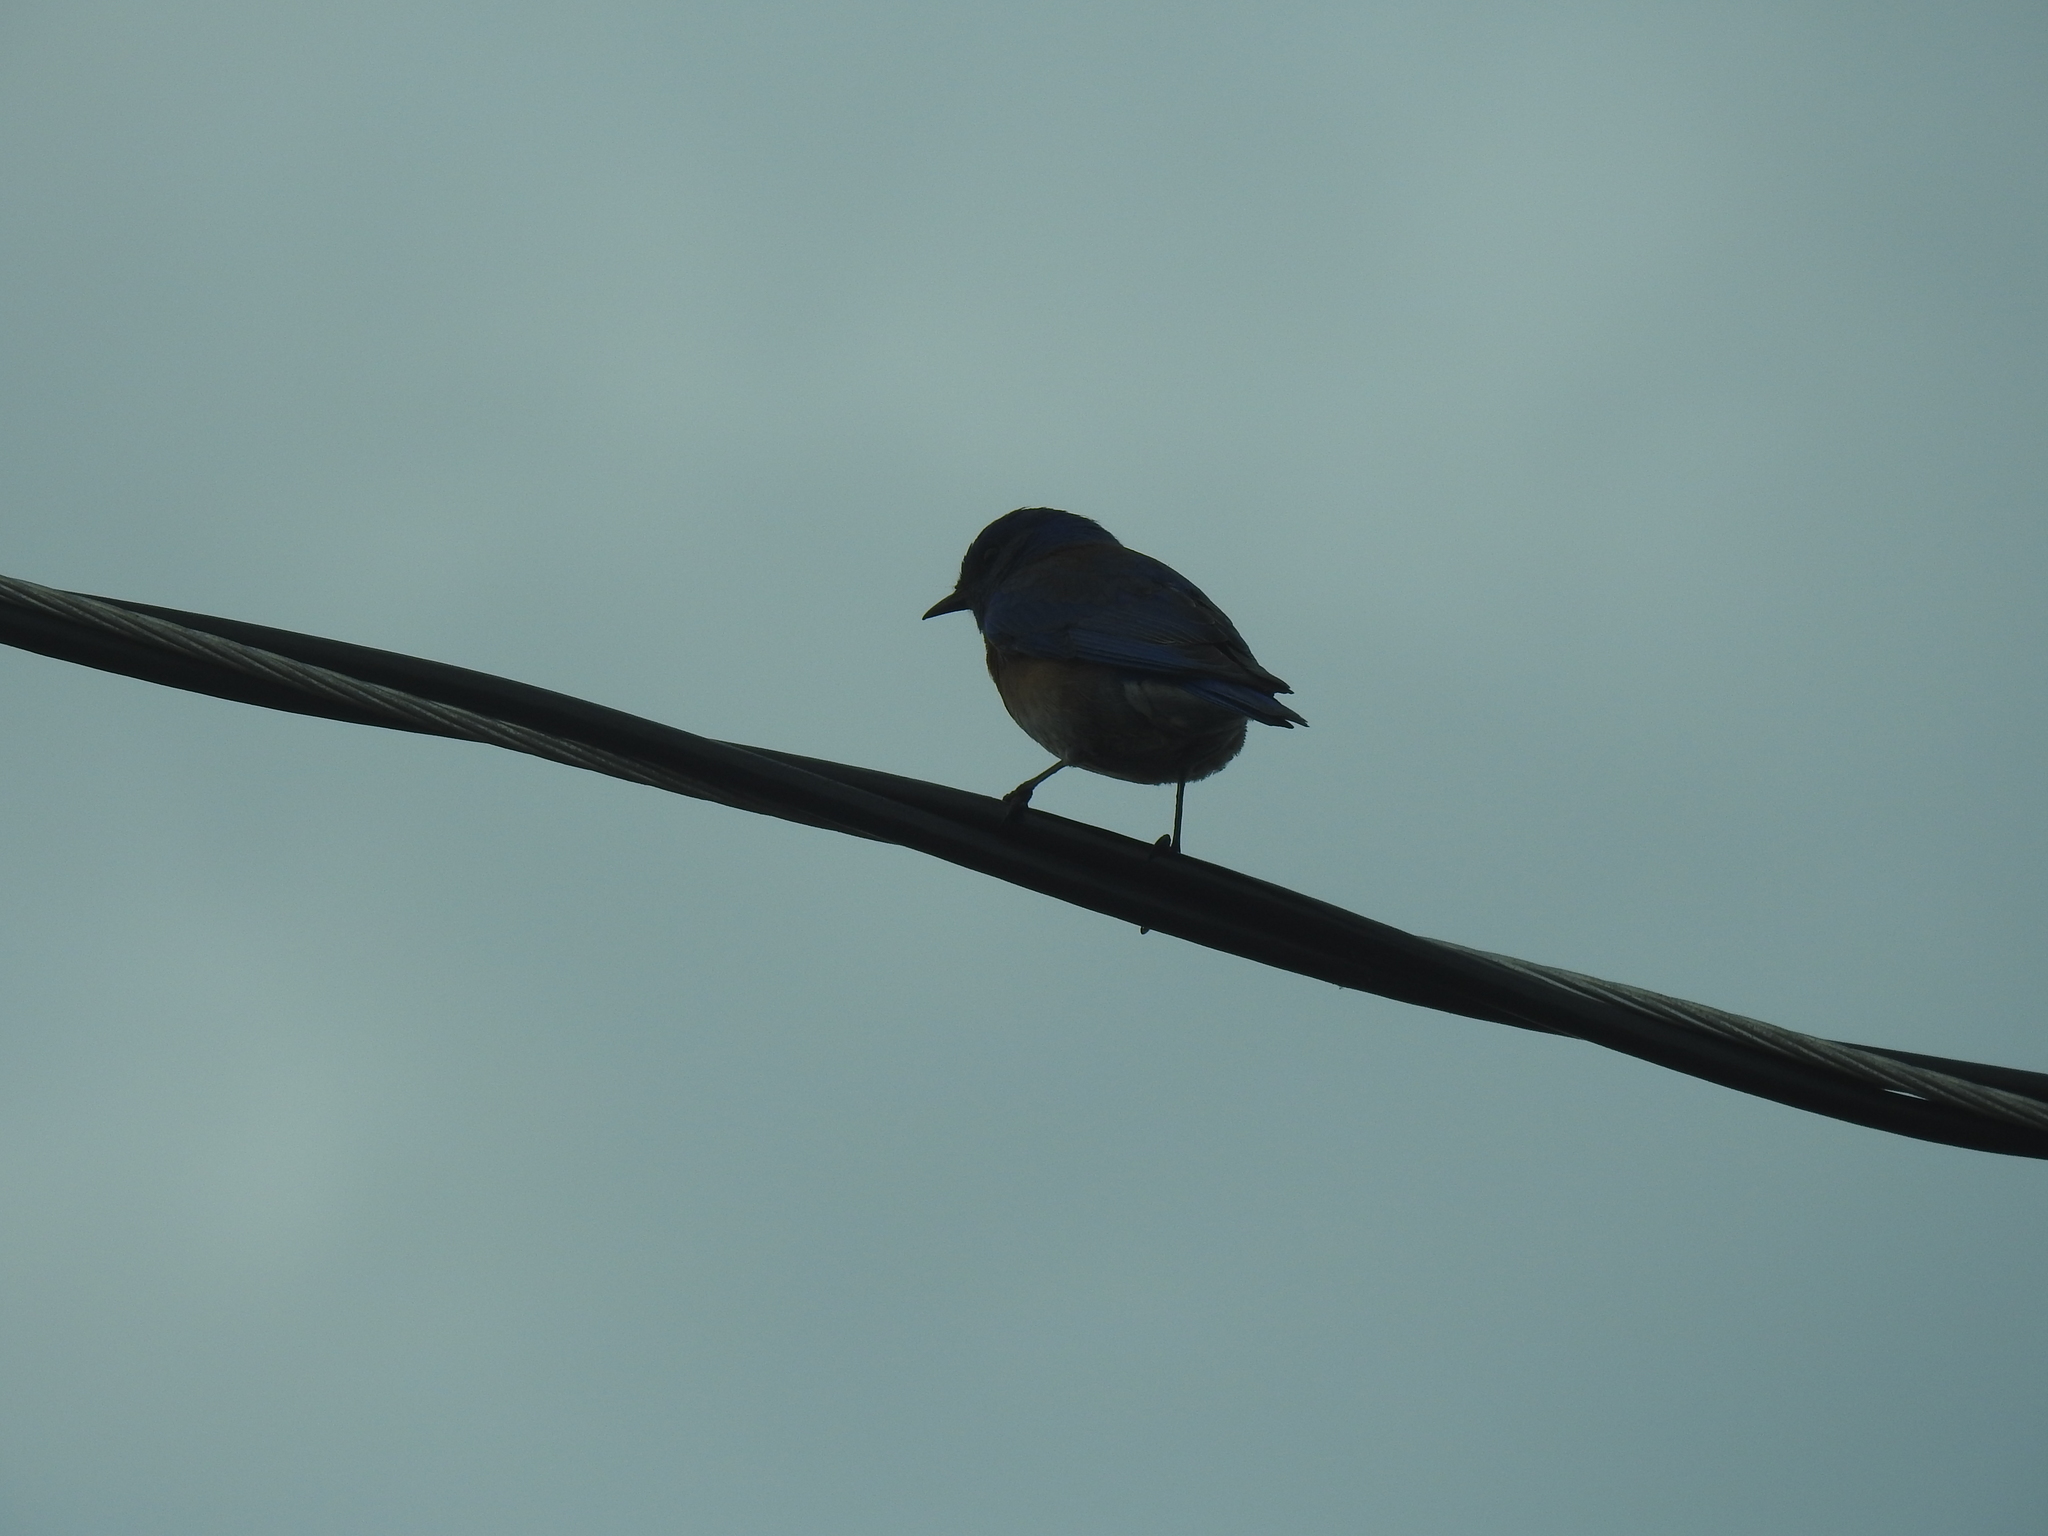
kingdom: Animalia
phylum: Chordata
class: Aves
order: Passeriformes
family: Turdidae
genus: Sialia
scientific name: Sialia mexicana
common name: Western bluebird
